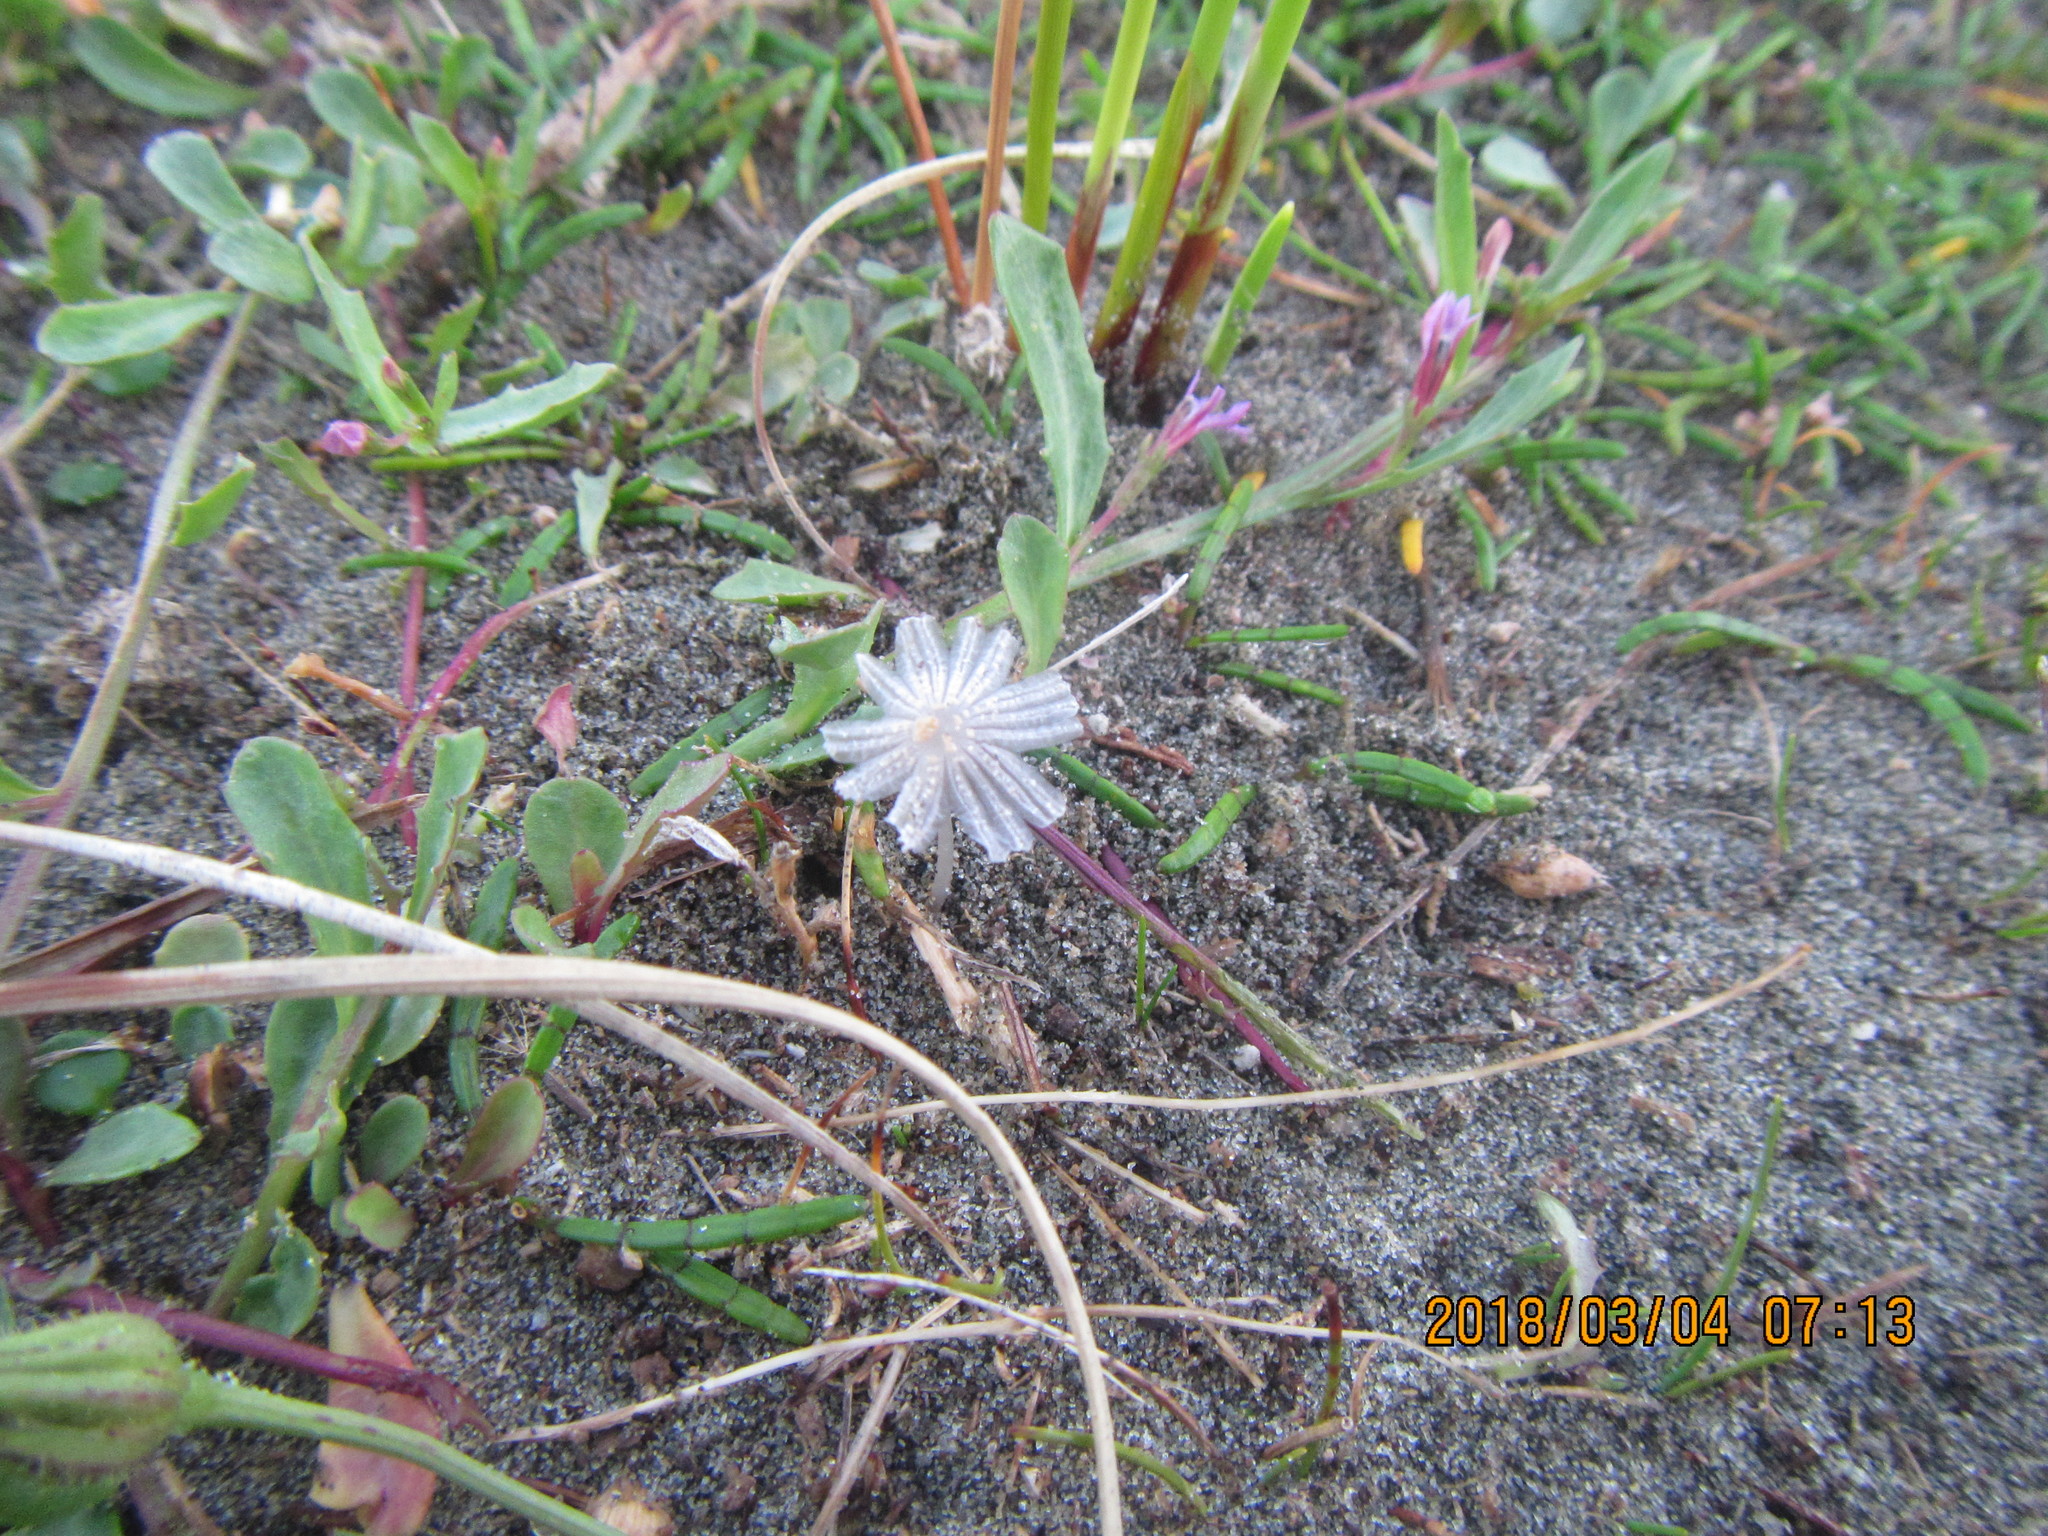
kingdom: Plantae
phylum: Tracheophyta
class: Magnoliopsida
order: Apiales
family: Apiaceae
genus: Lilaeopsis
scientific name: Lilaeopsis novae-zelandiae
